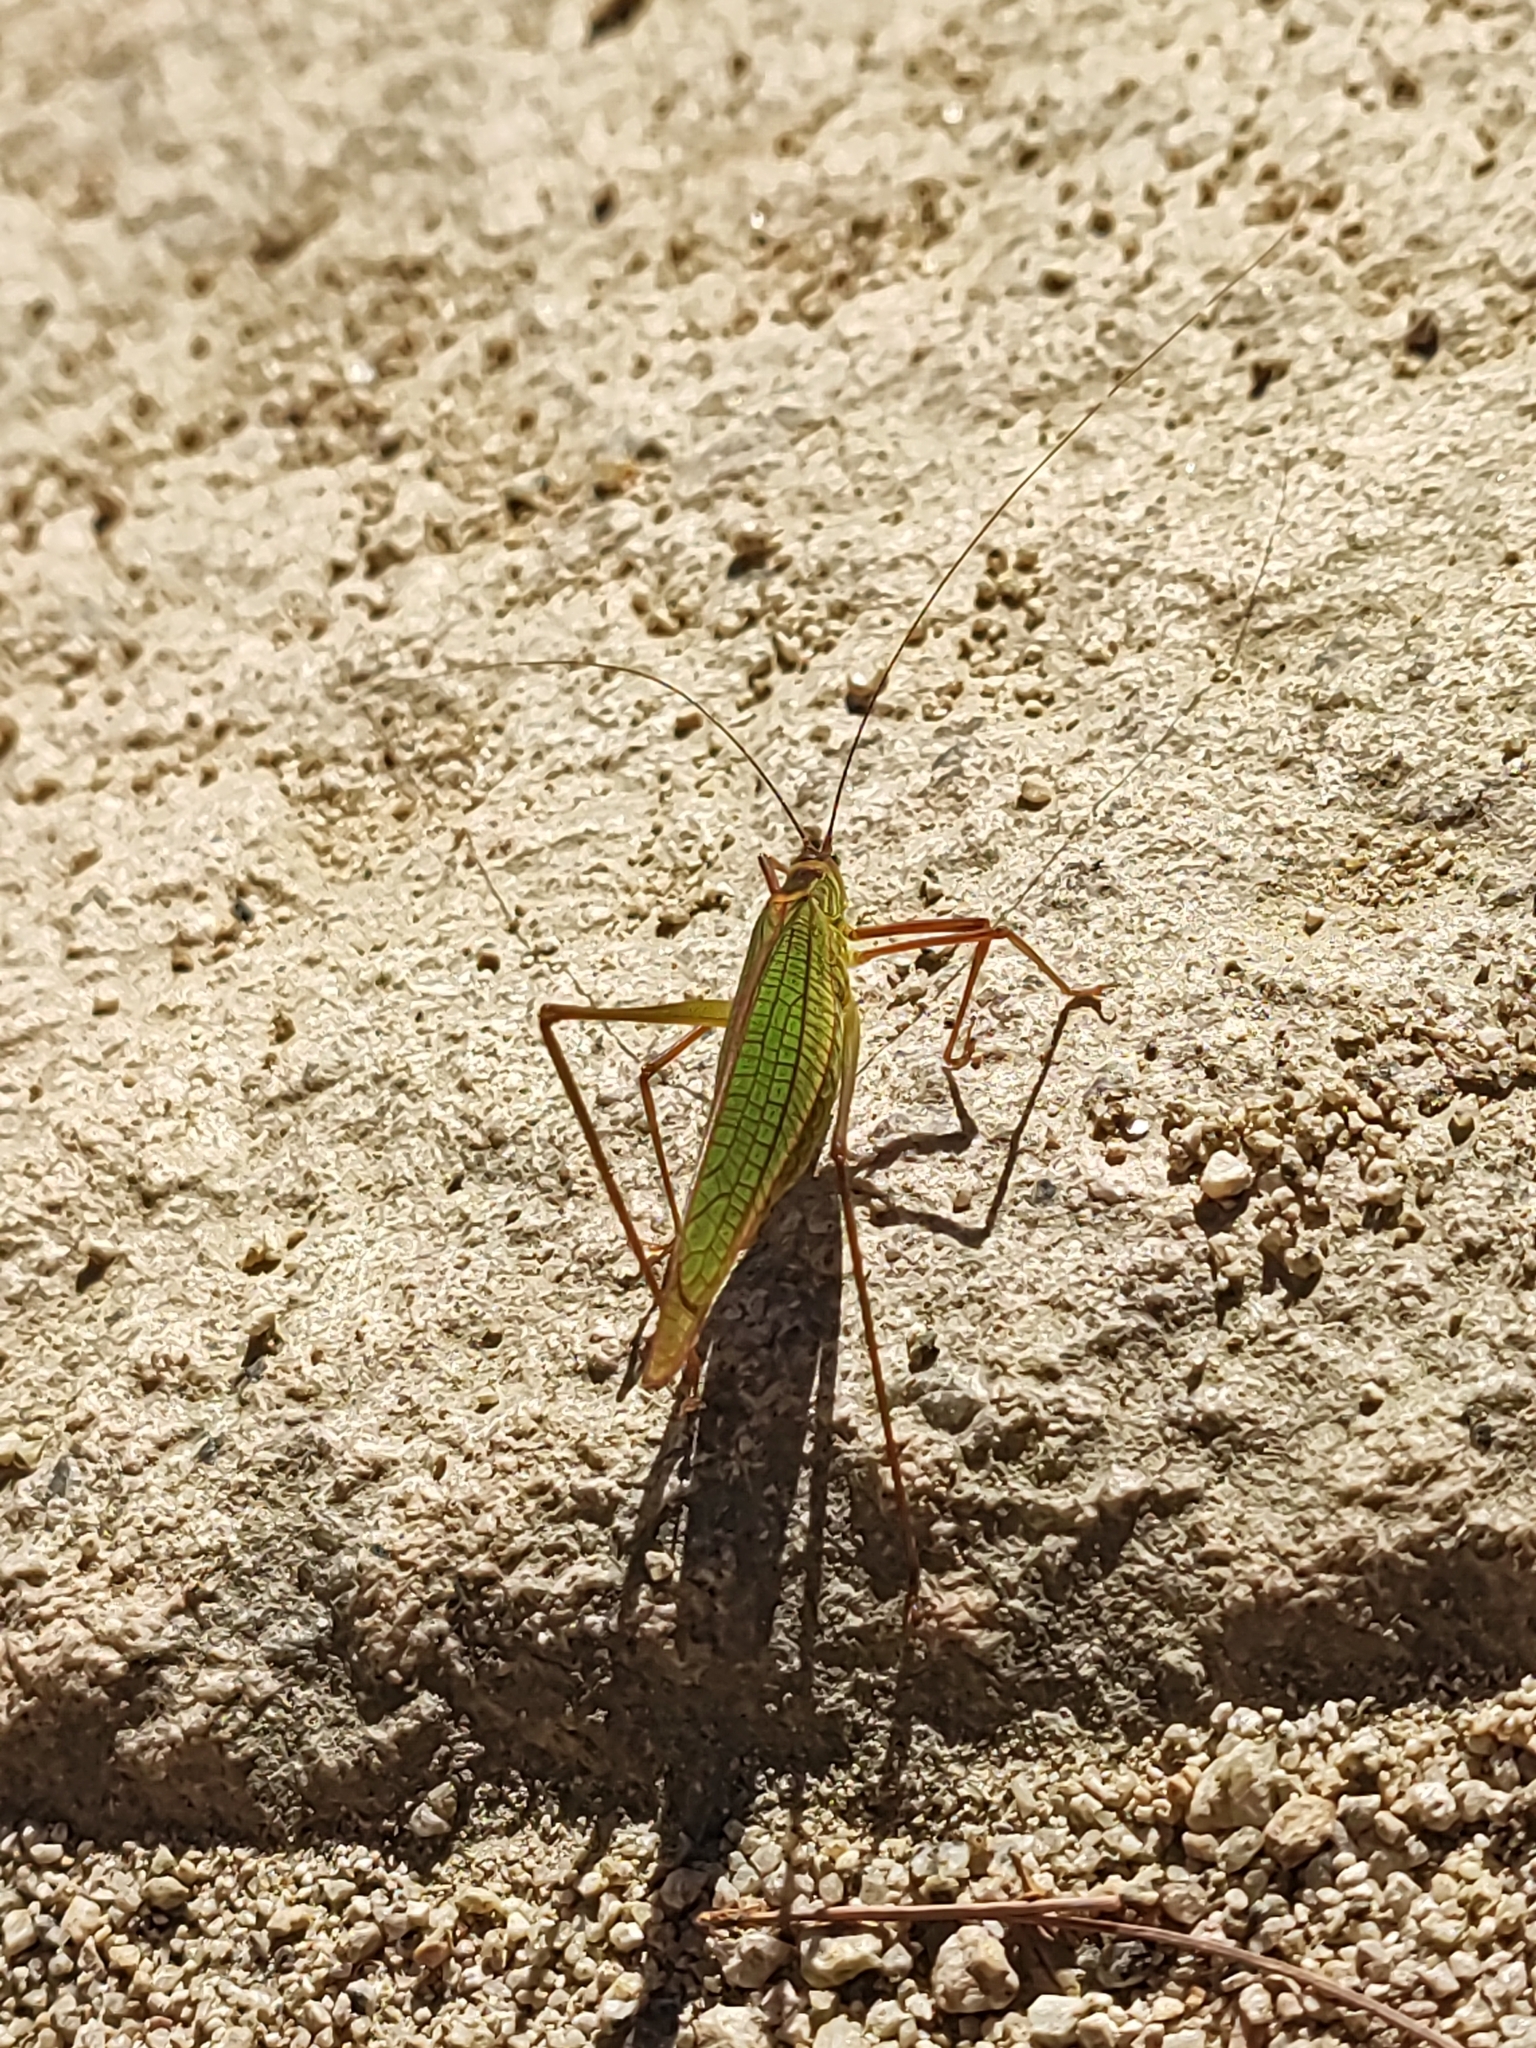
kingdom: Animalia
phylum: Arthropoda
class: Insecta
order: Orthoptera
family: Tettigoniidae
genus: Elimaea
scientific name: Elimaea fallax
